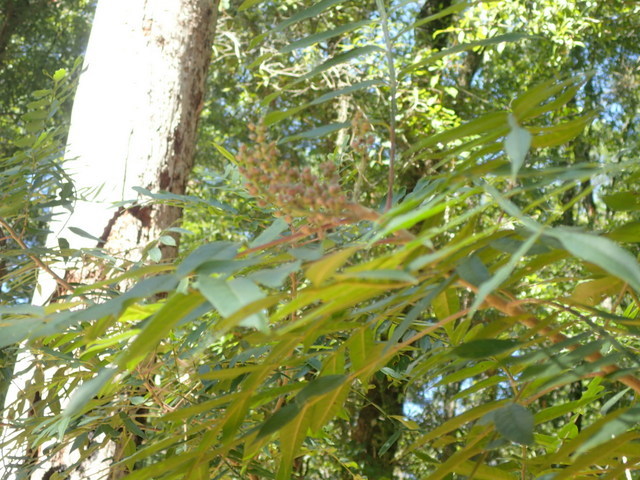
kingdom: Plantae
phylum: Tracheophyta
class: Magnoliopsida
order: Sapindales
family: Anacardiaceae
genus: Rhus
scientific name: Rhus copallina
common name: Shining sumac
